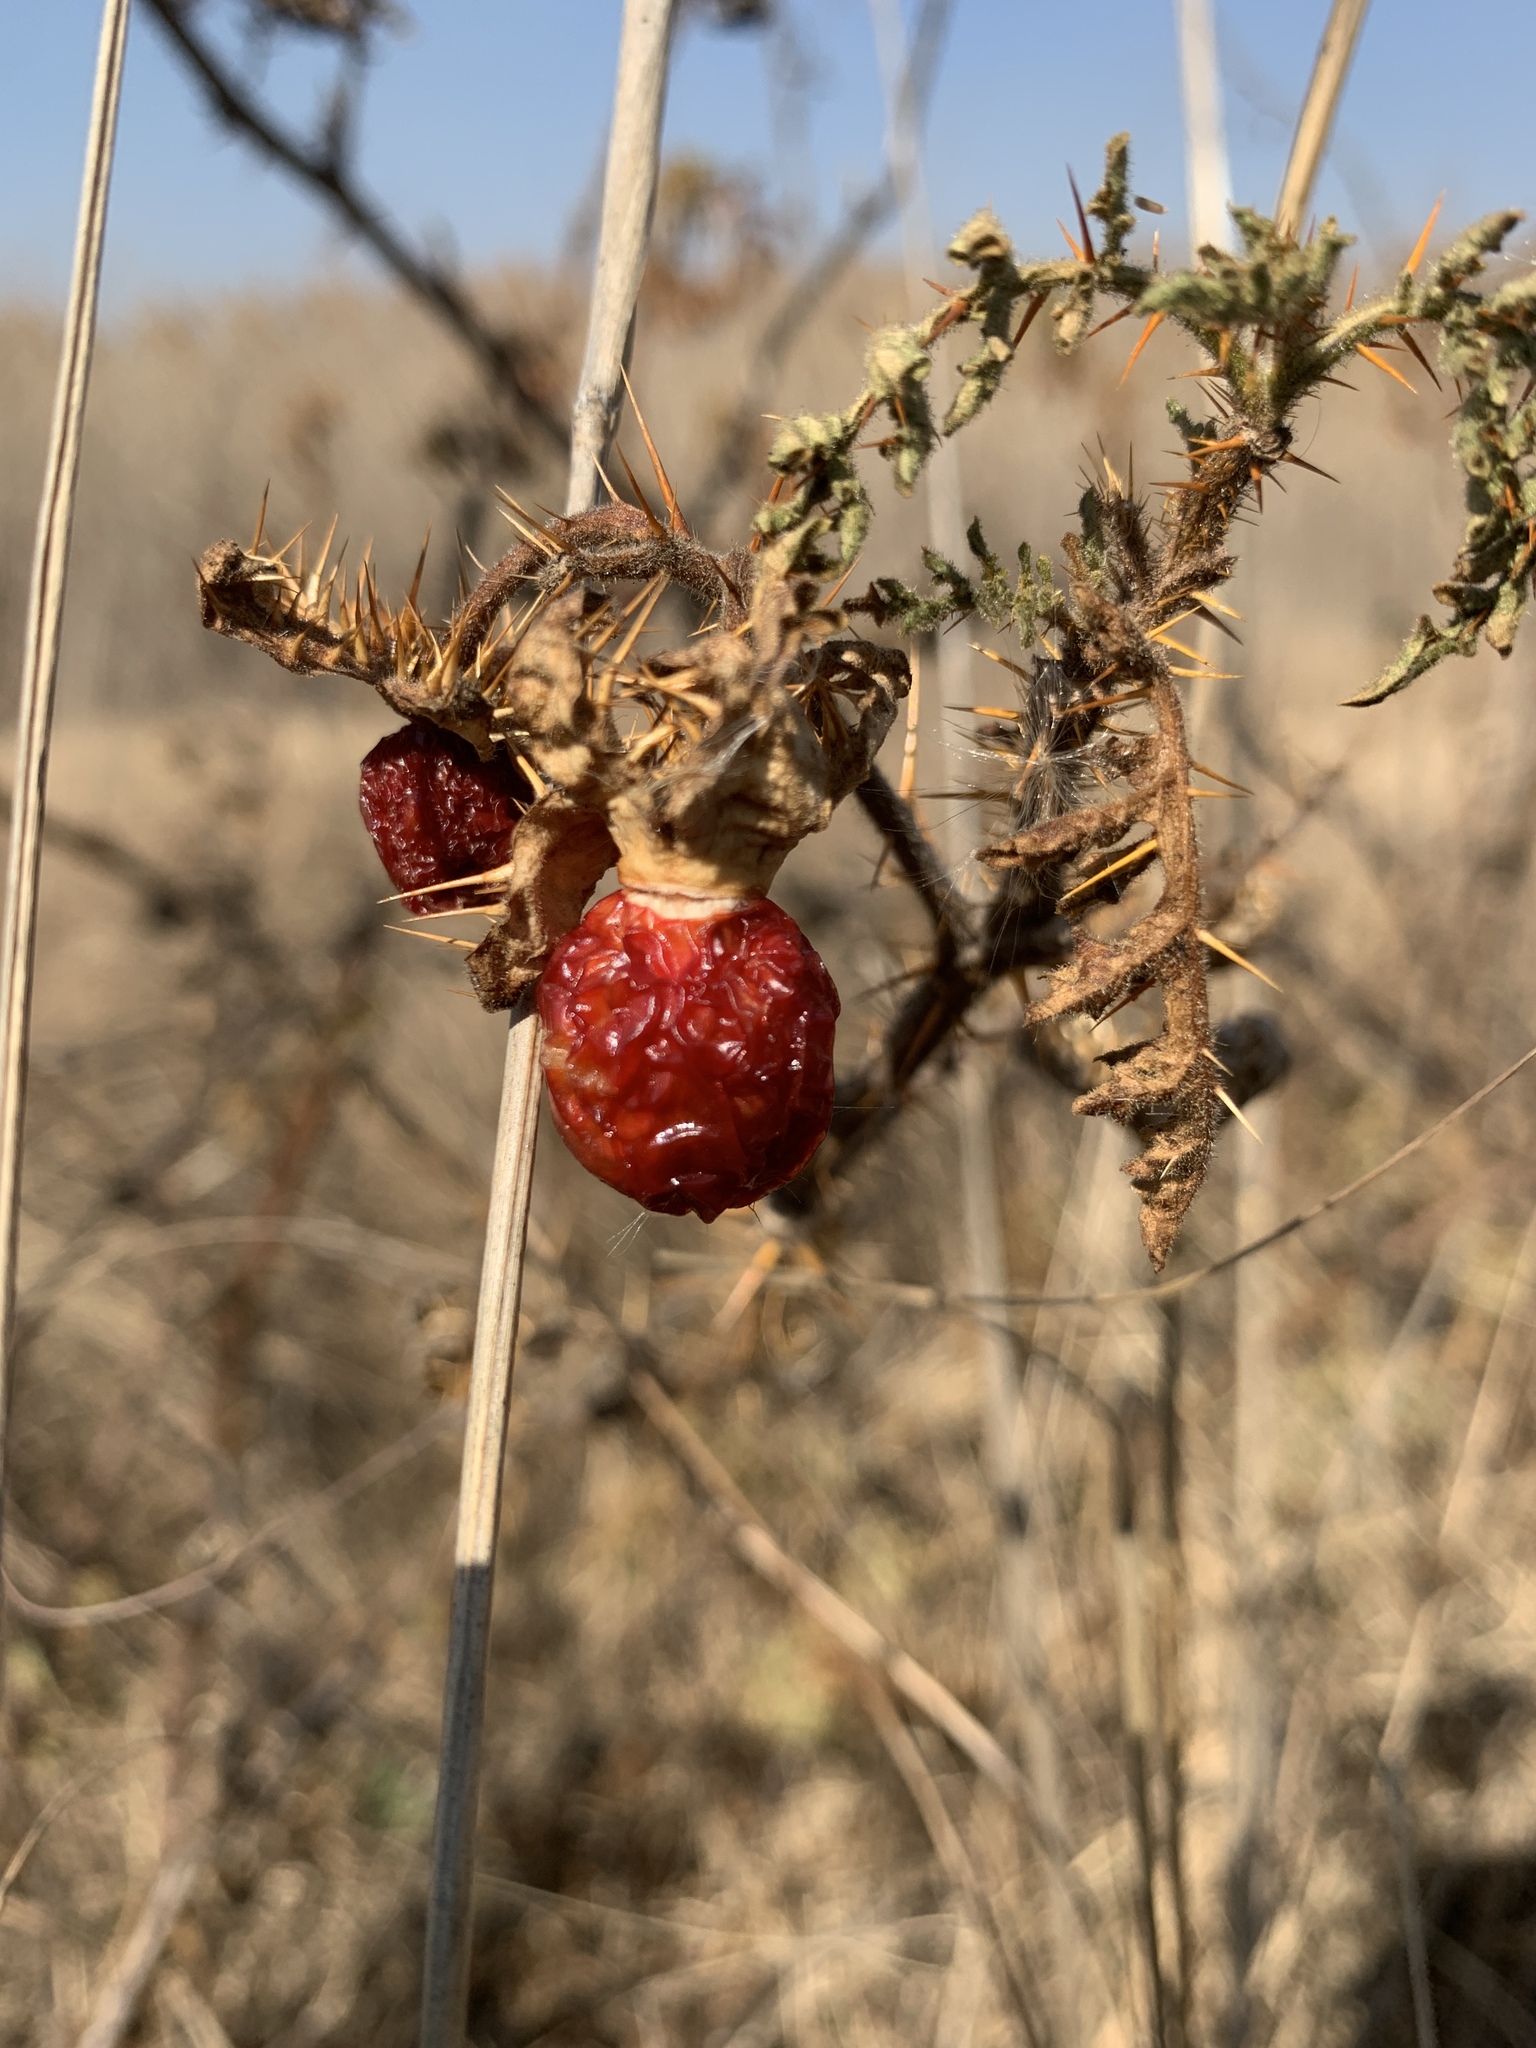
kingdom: Plantae
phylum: Tracheophyta
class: Magnoliopsida
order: Solanales
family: Solanaceae
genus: Solanum
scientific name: Solanum sisymbriifolium
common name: Red buffalo-bur
